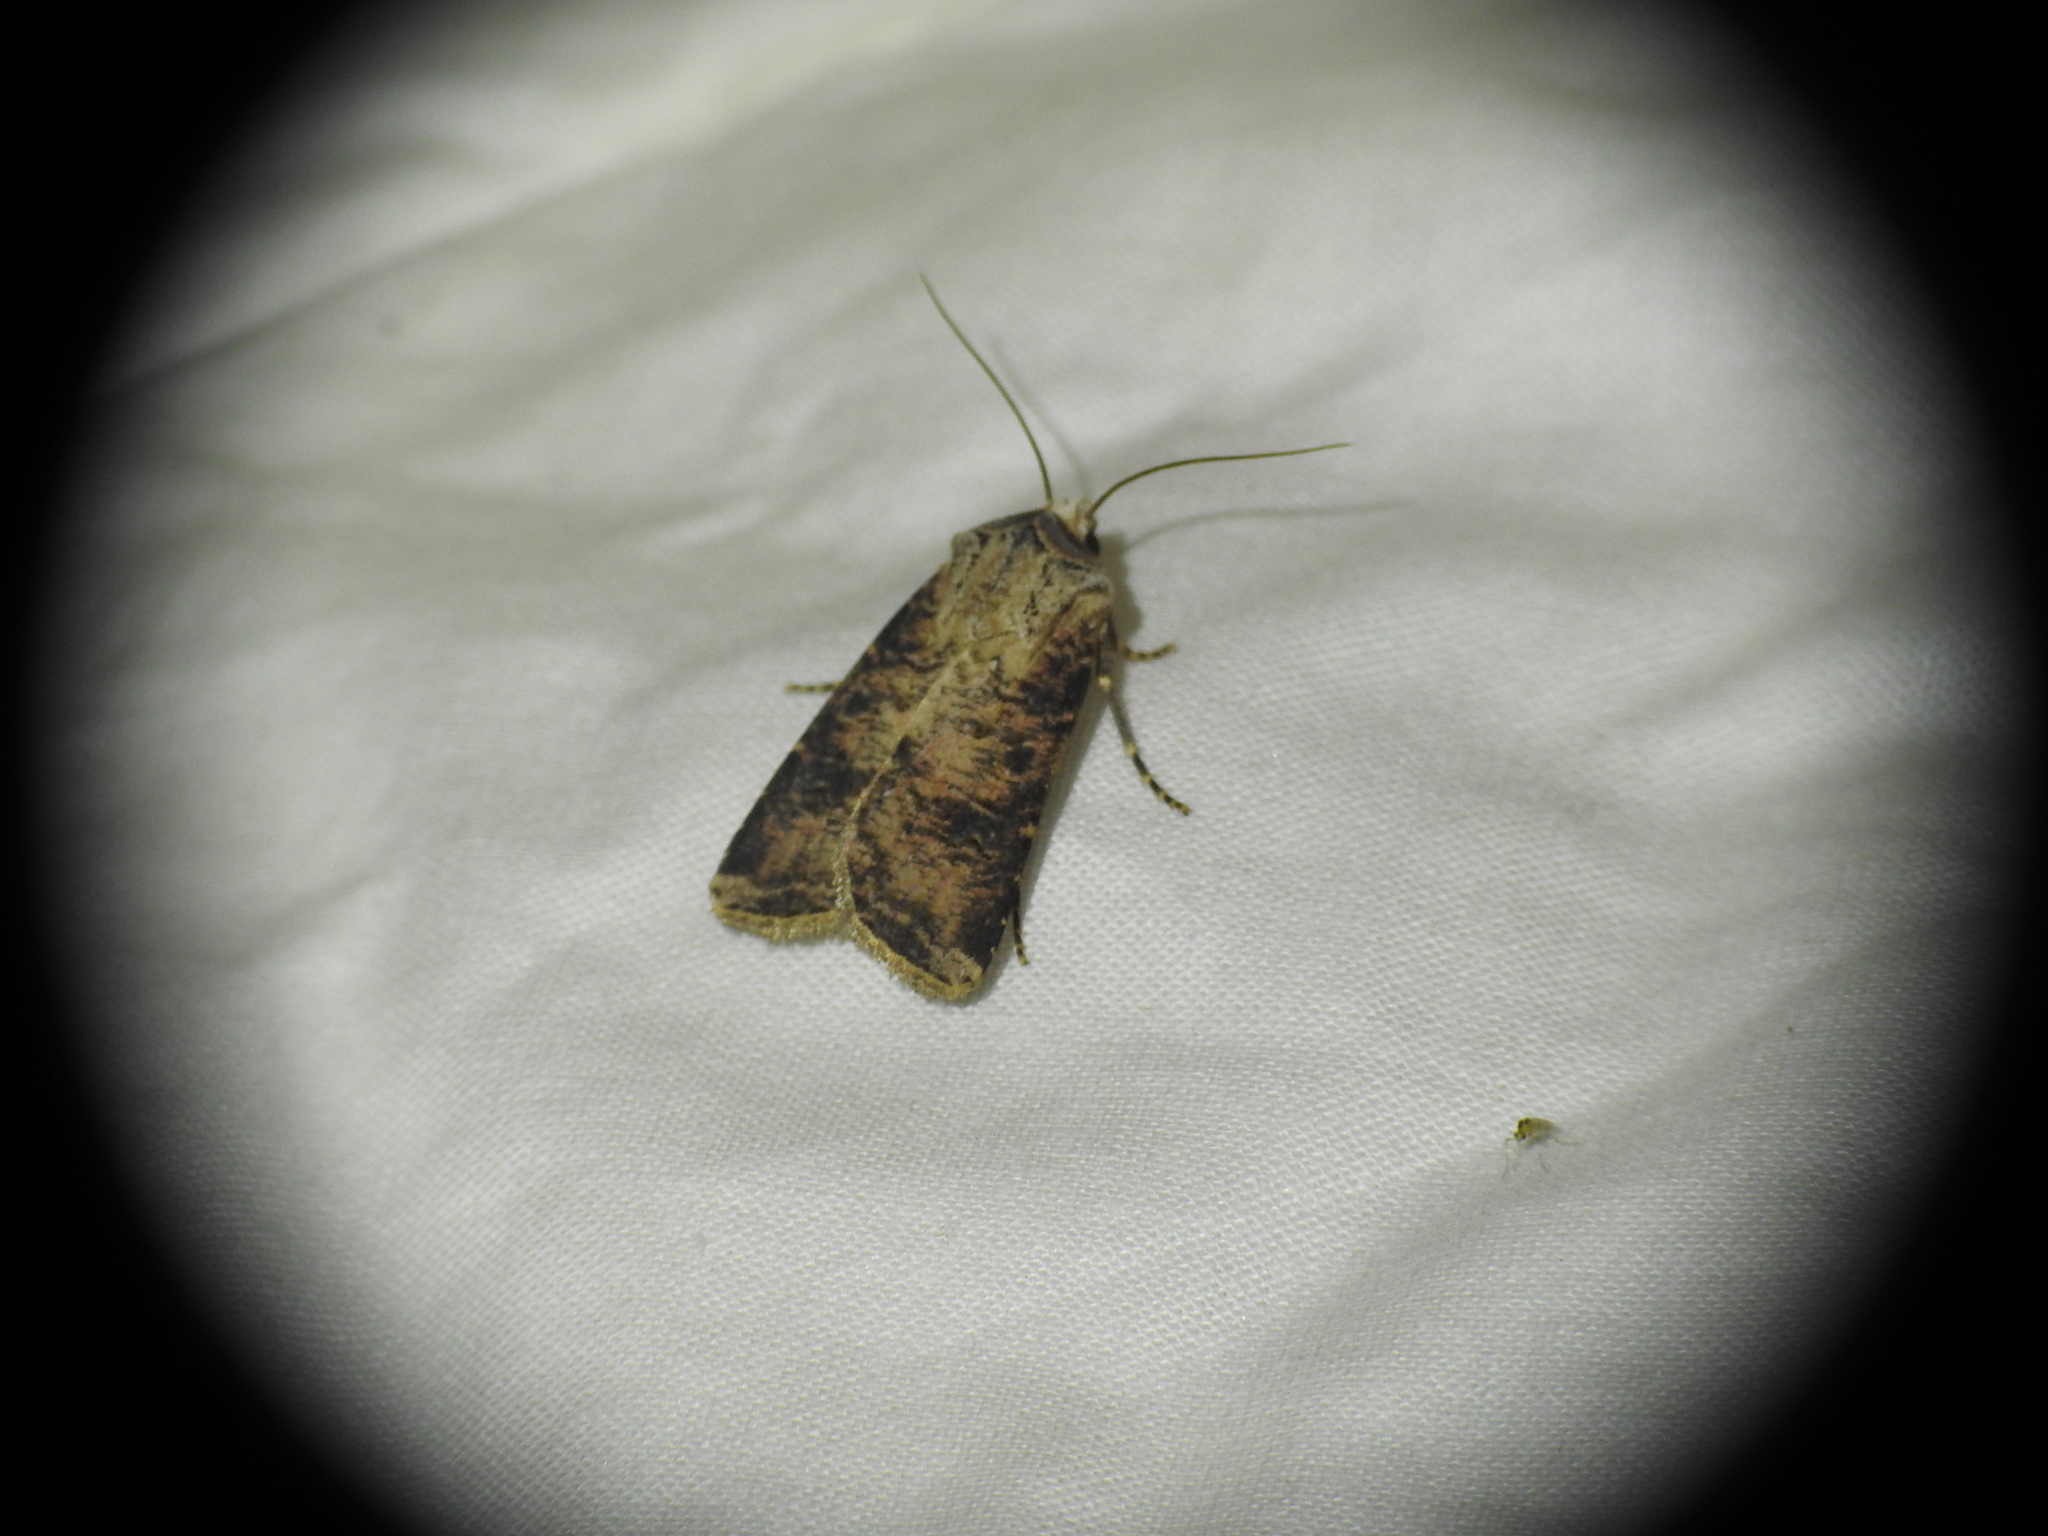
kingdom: Animalia
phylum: Arthropoda
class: Insecta
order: Lepidoptera
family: Noctuidae
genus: Agrotis
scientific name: Agrotis clavis
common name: Heart and club
